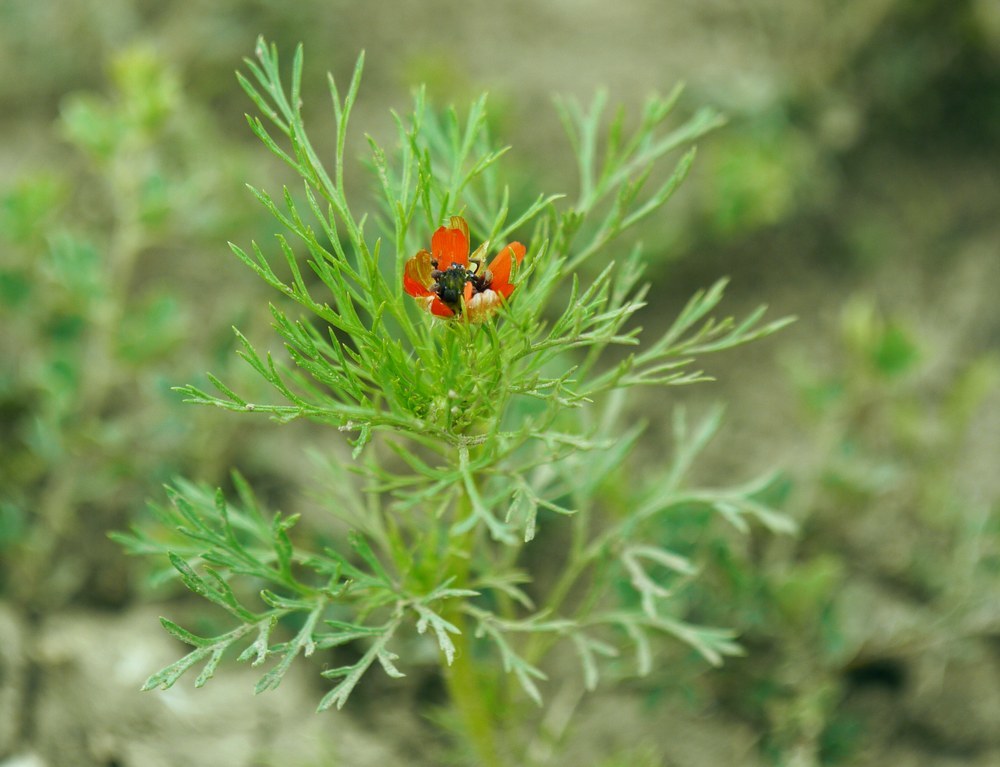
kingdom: Plantae
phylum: Tracheophyta
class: Magnoliopsida
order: Ranunculales
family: Ranunculaceae
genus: Adonis
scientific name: Adonis aestivalis
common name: Summer pheasant's-eye
